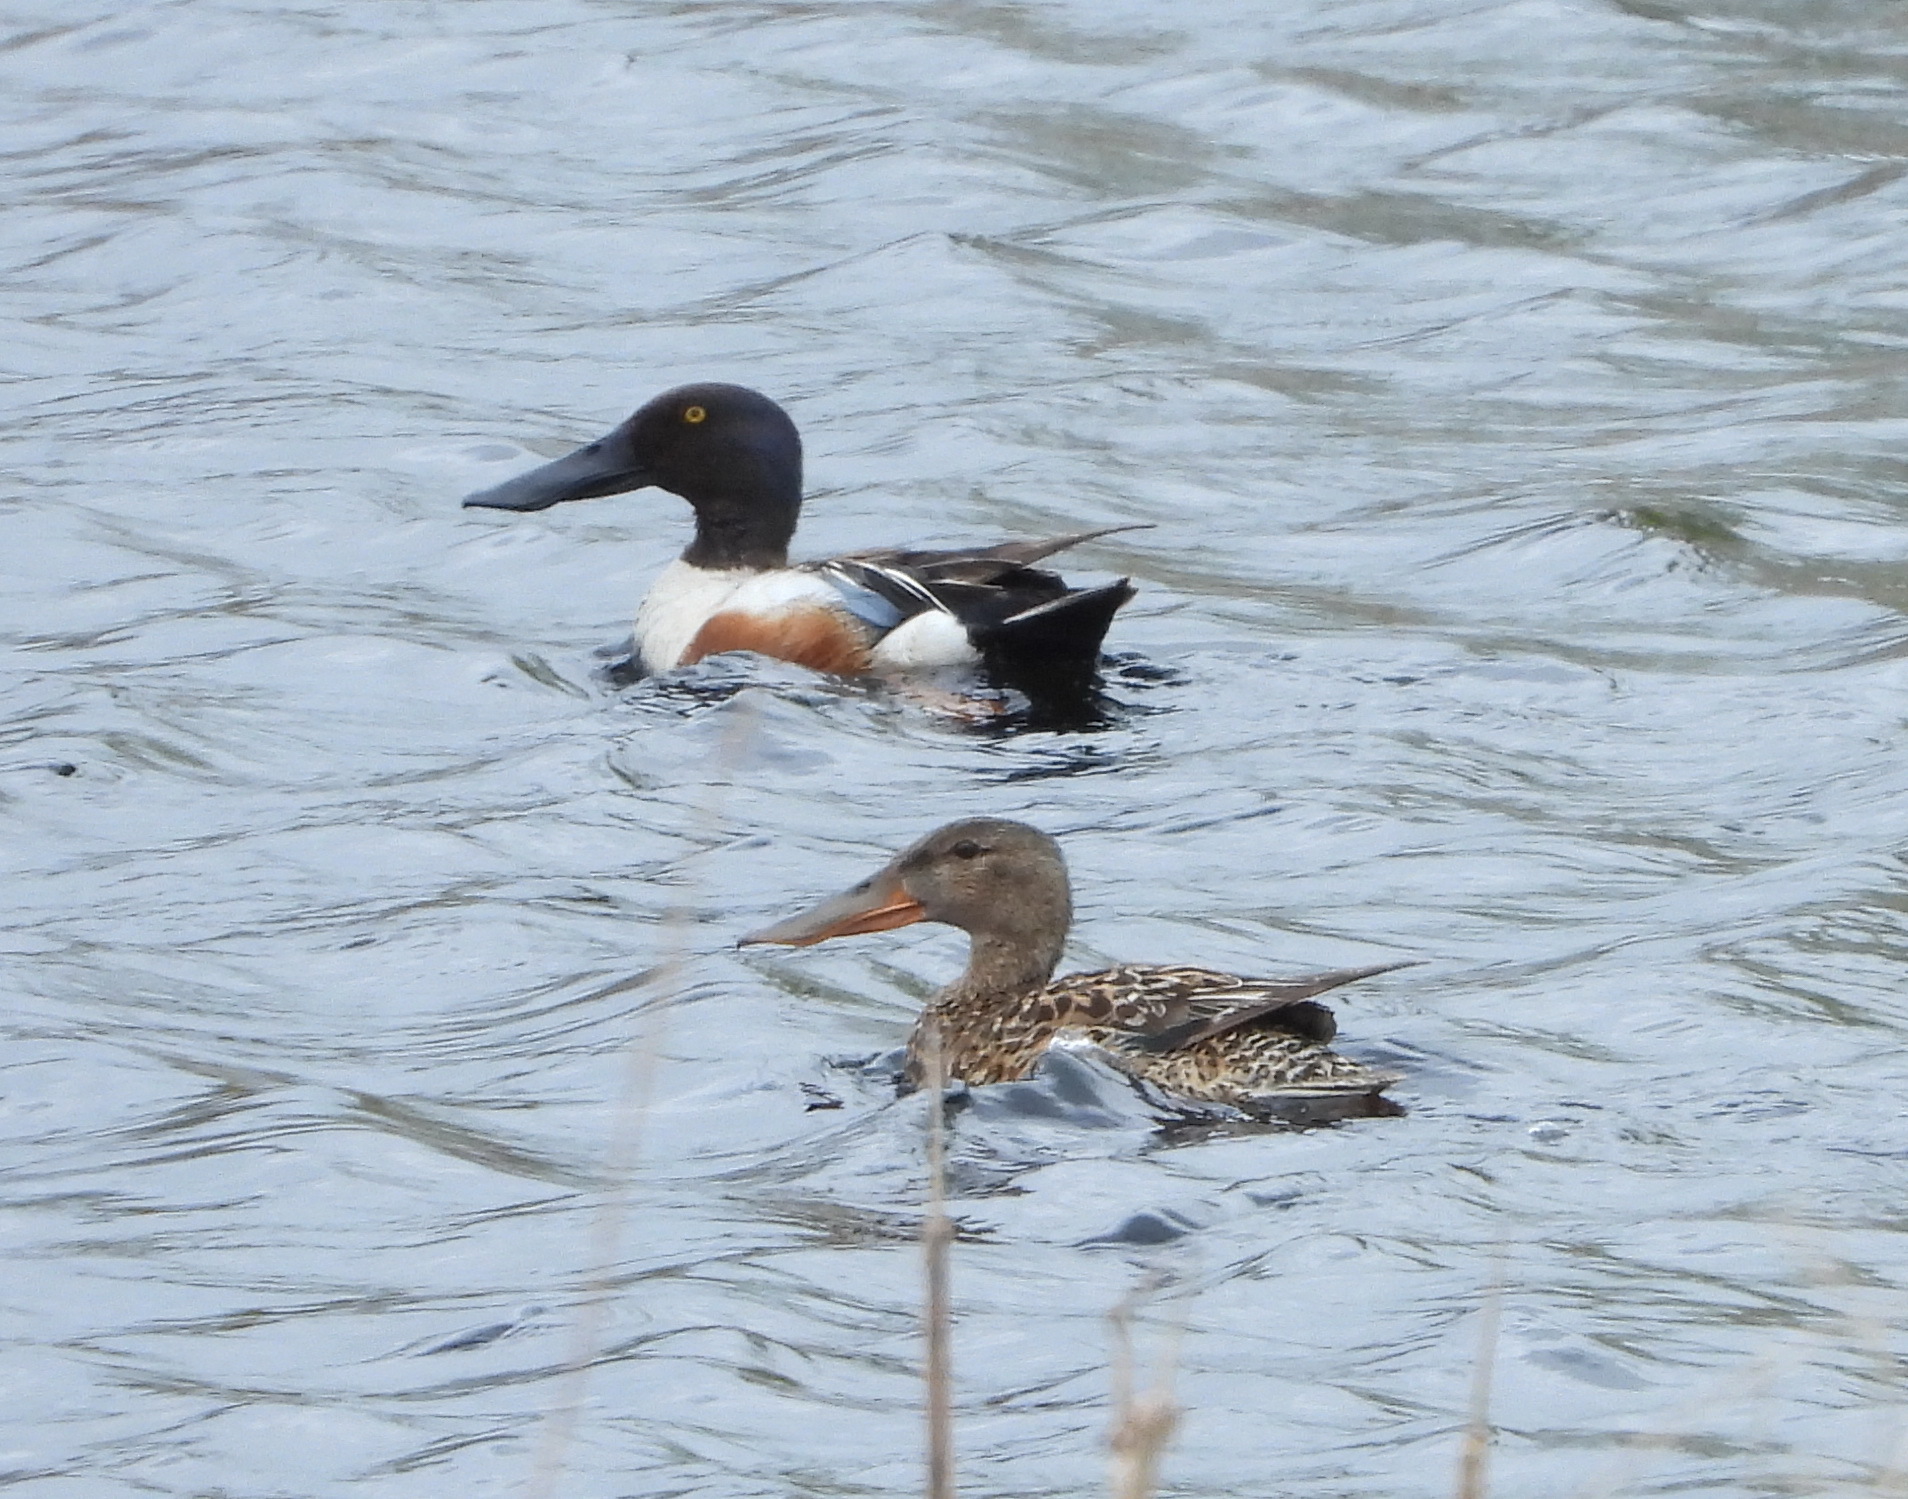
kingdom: Animalia
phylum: Chordata
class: Aves
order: Anseriformes
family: Anatidae
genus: Spatula
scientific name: Spatula clypeata
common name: Northern shoveler
